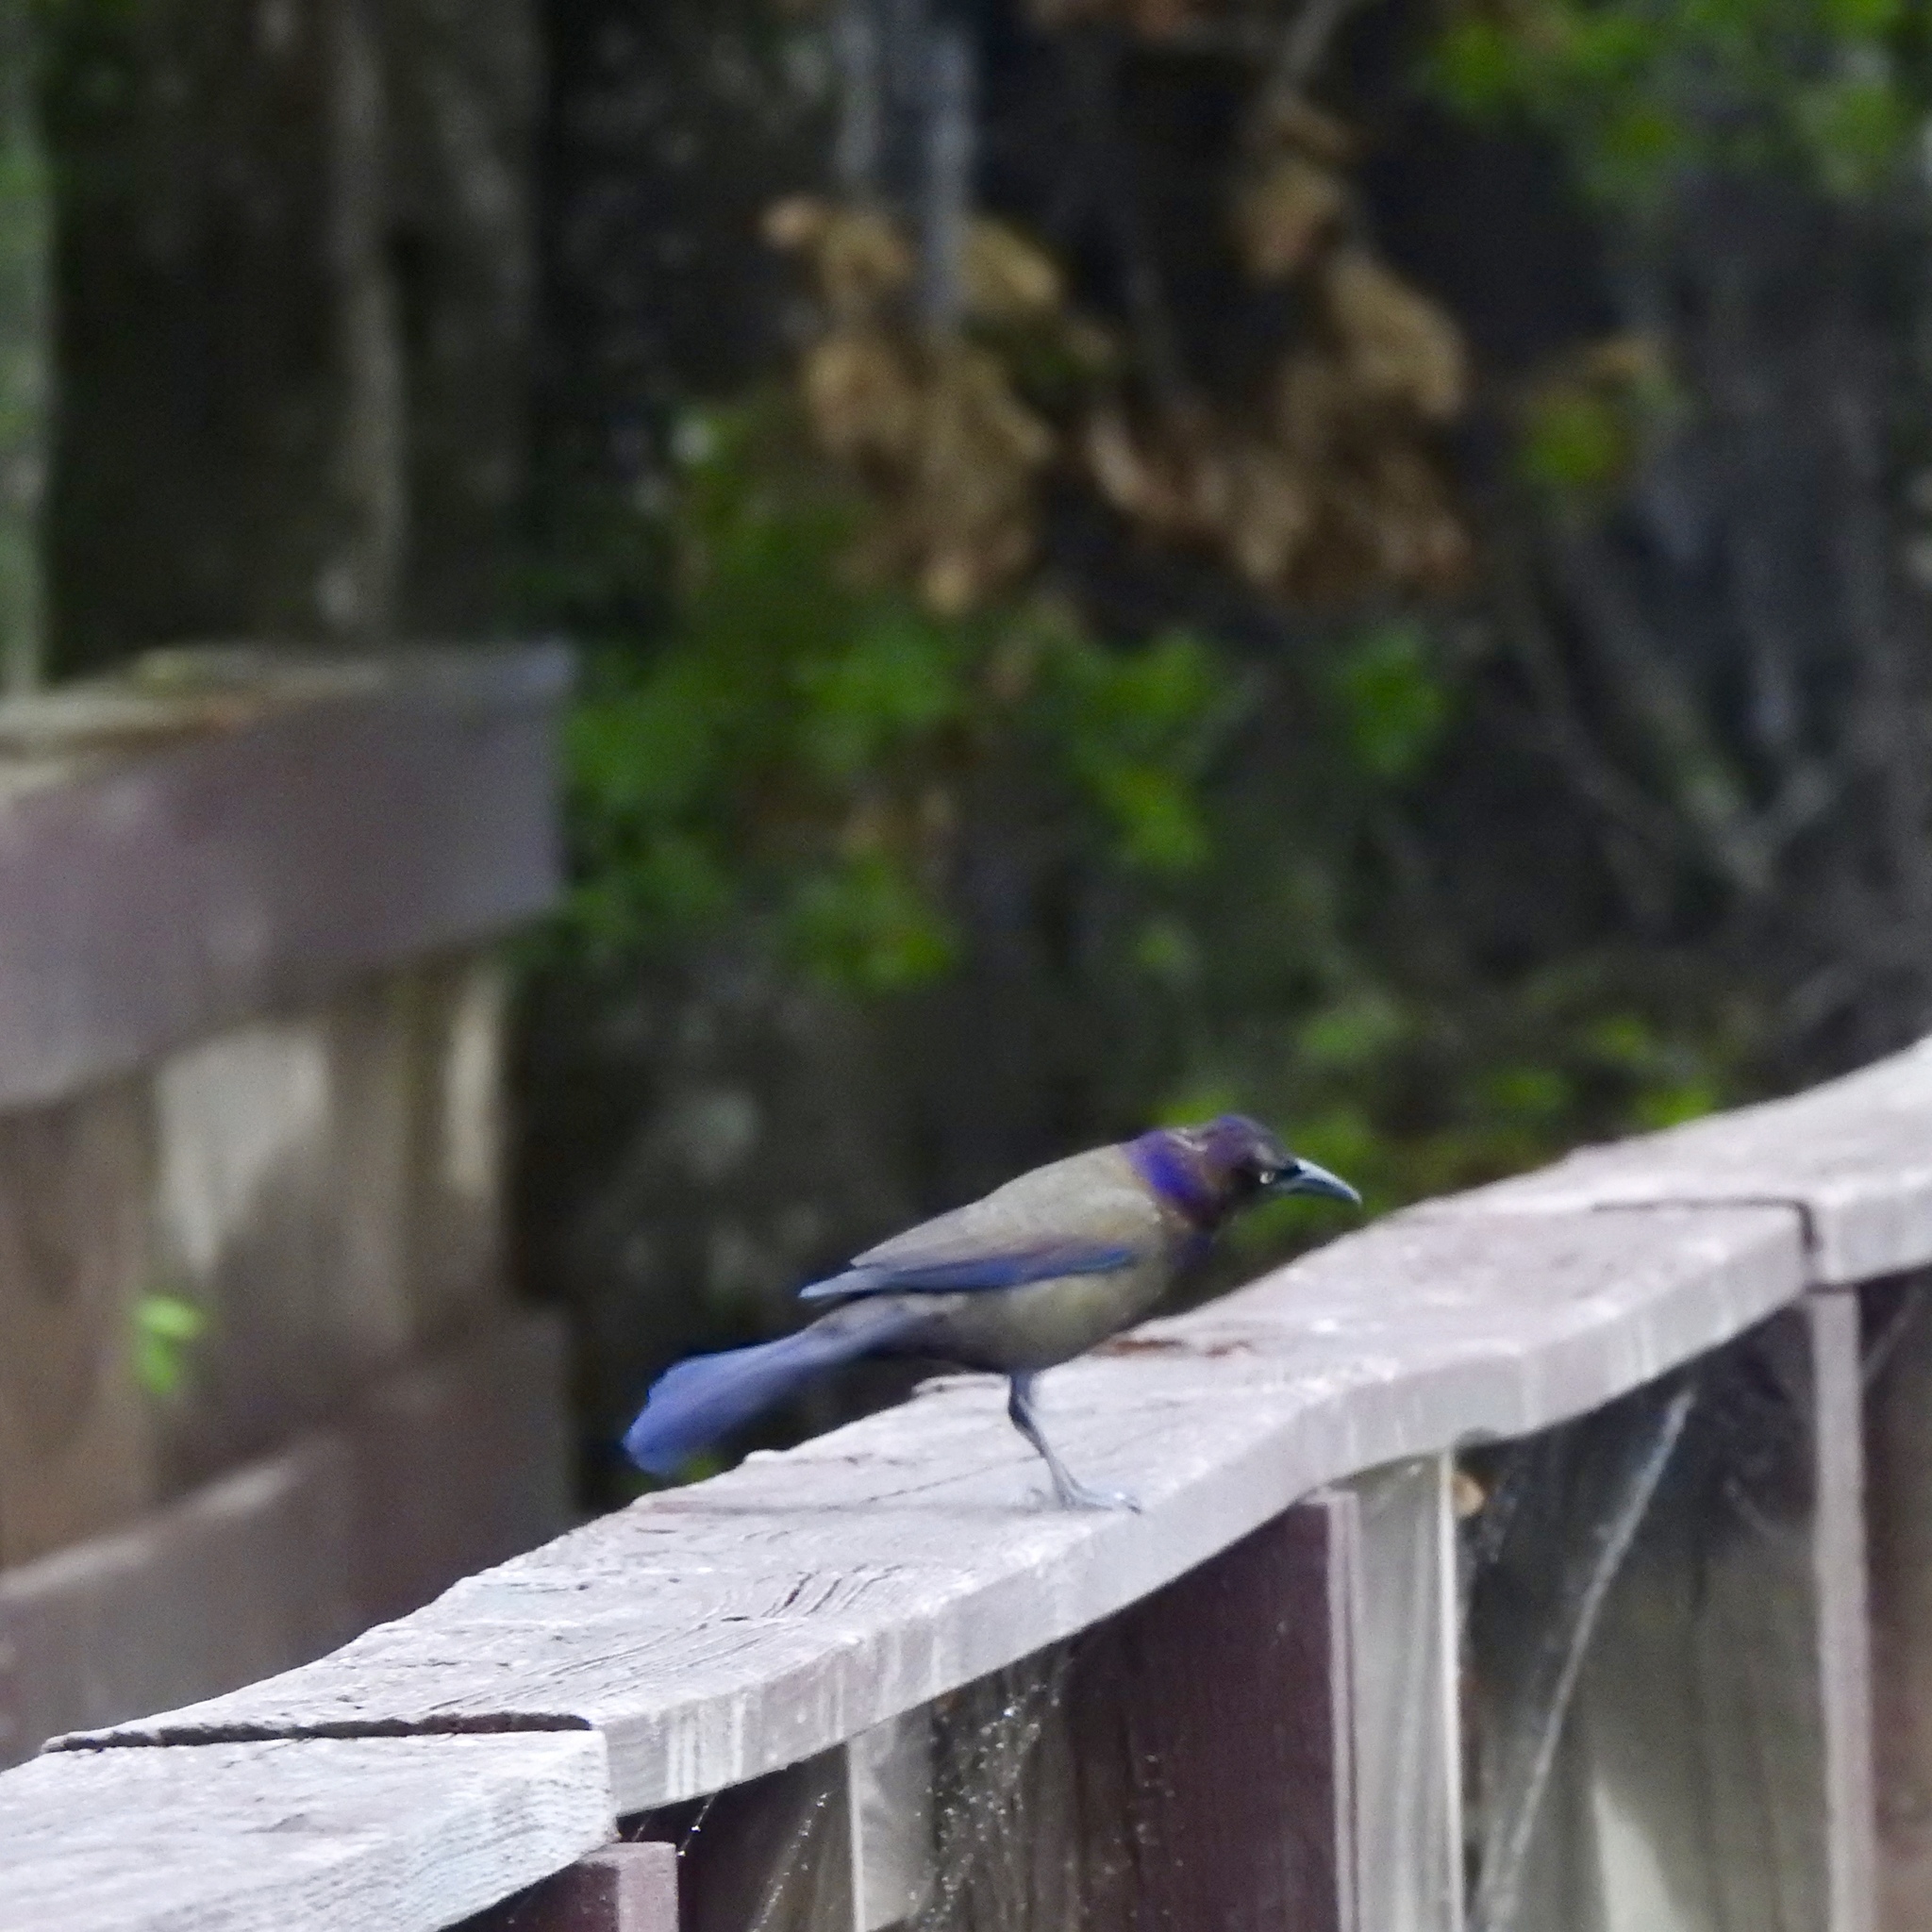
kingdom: Animalia
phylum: Chordata
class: Aves
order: Passeriformes
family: Icteridae
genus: Quiscalus
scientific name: Quiscalus quiscula
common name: Common grackle
